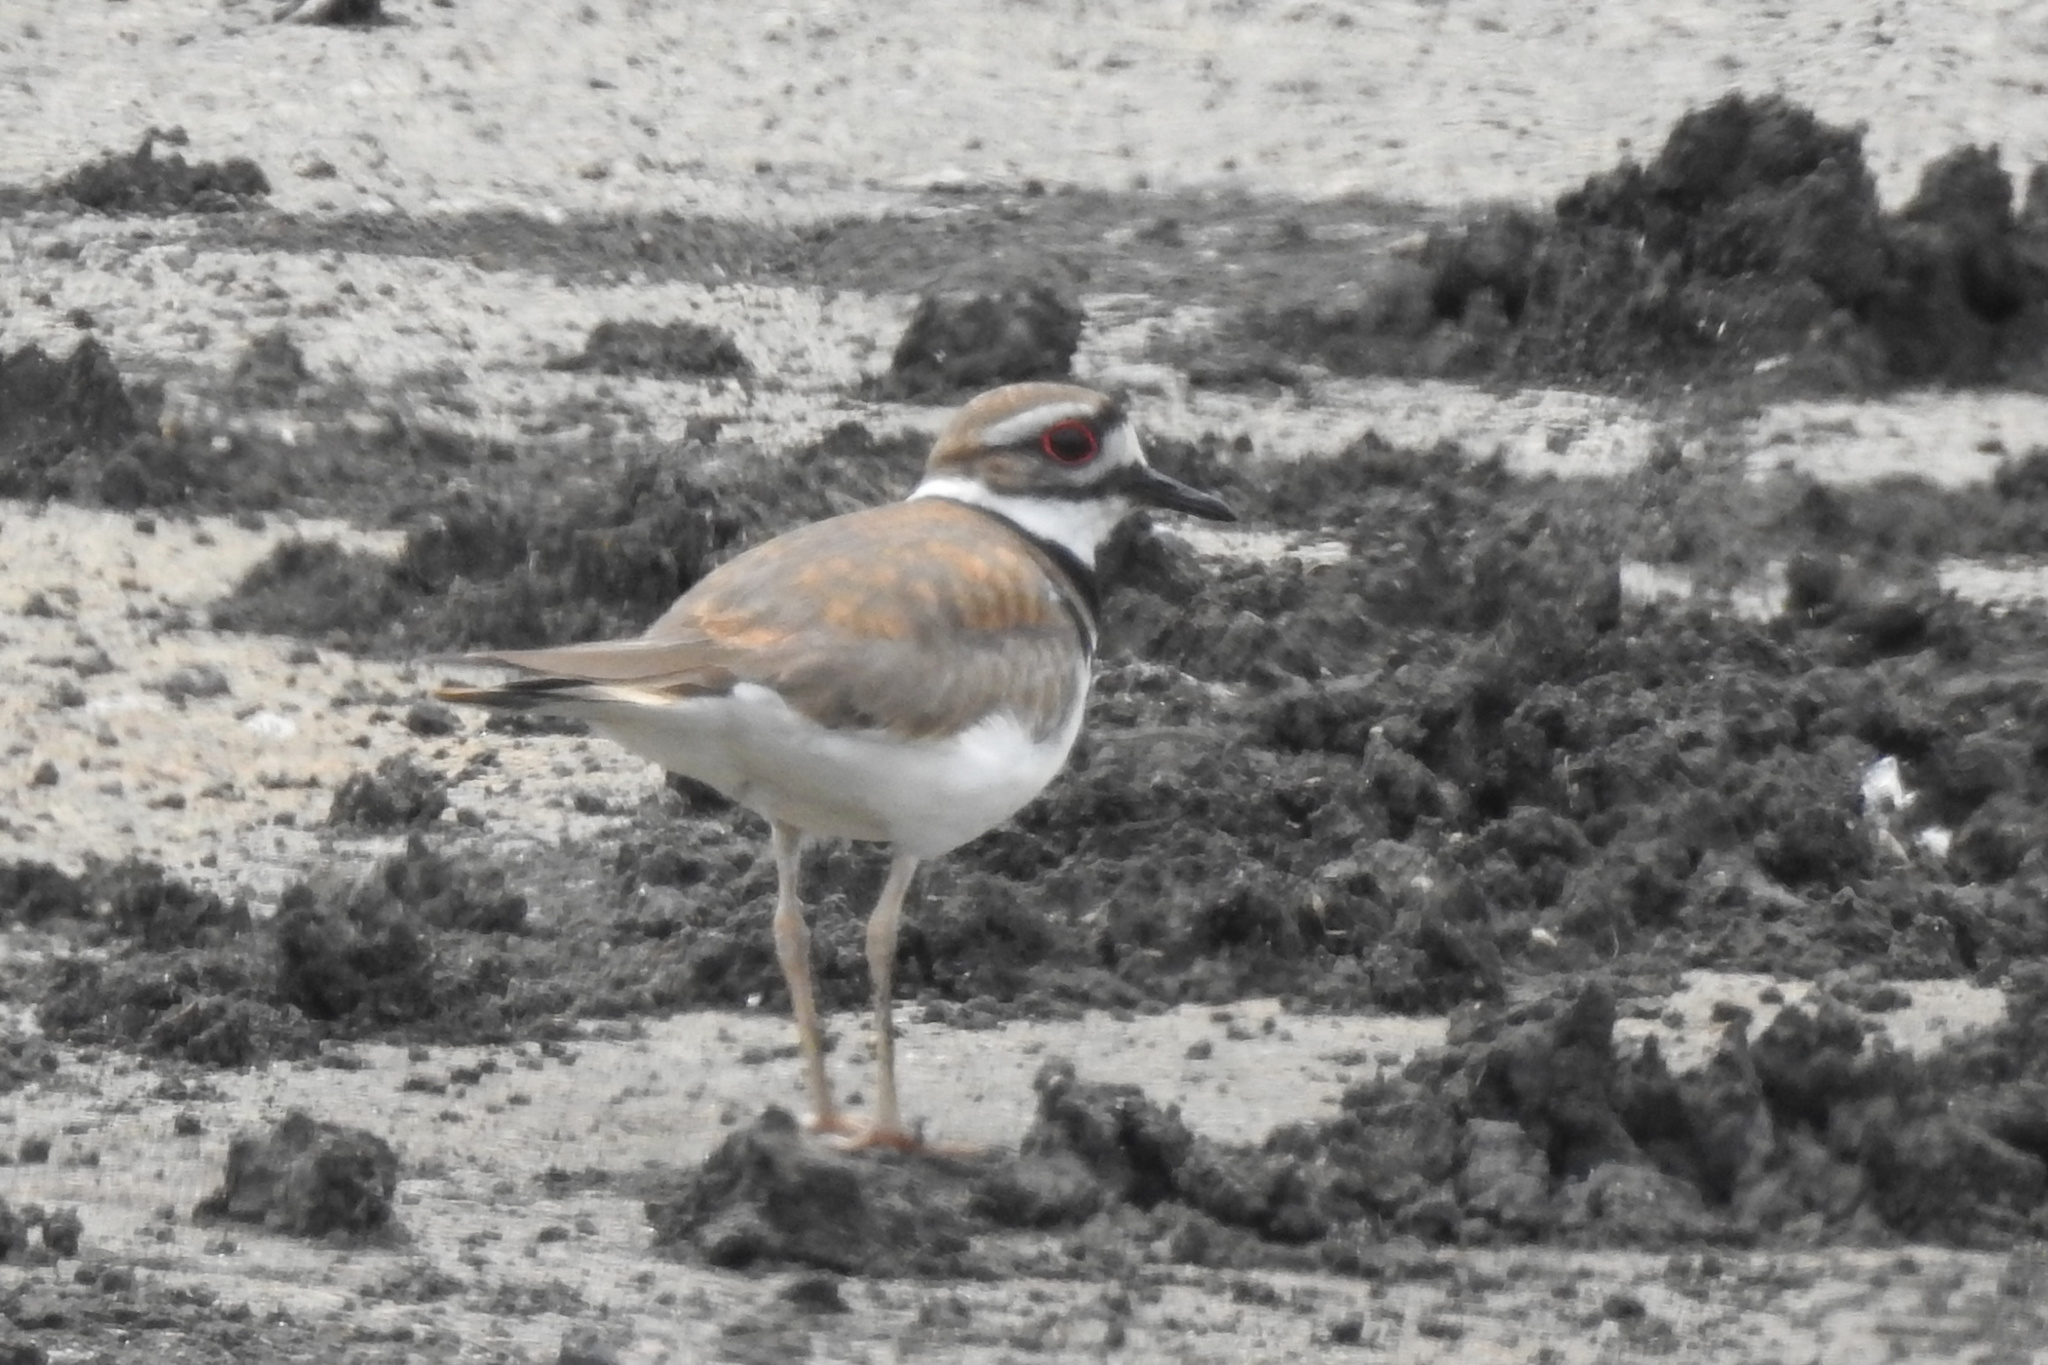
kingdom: Animalia
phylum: Chordata
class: Aves
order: Charadriiformes
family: Charadriidae
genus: Charadrius
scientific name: Charadrius vociferus
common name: Killdeer
